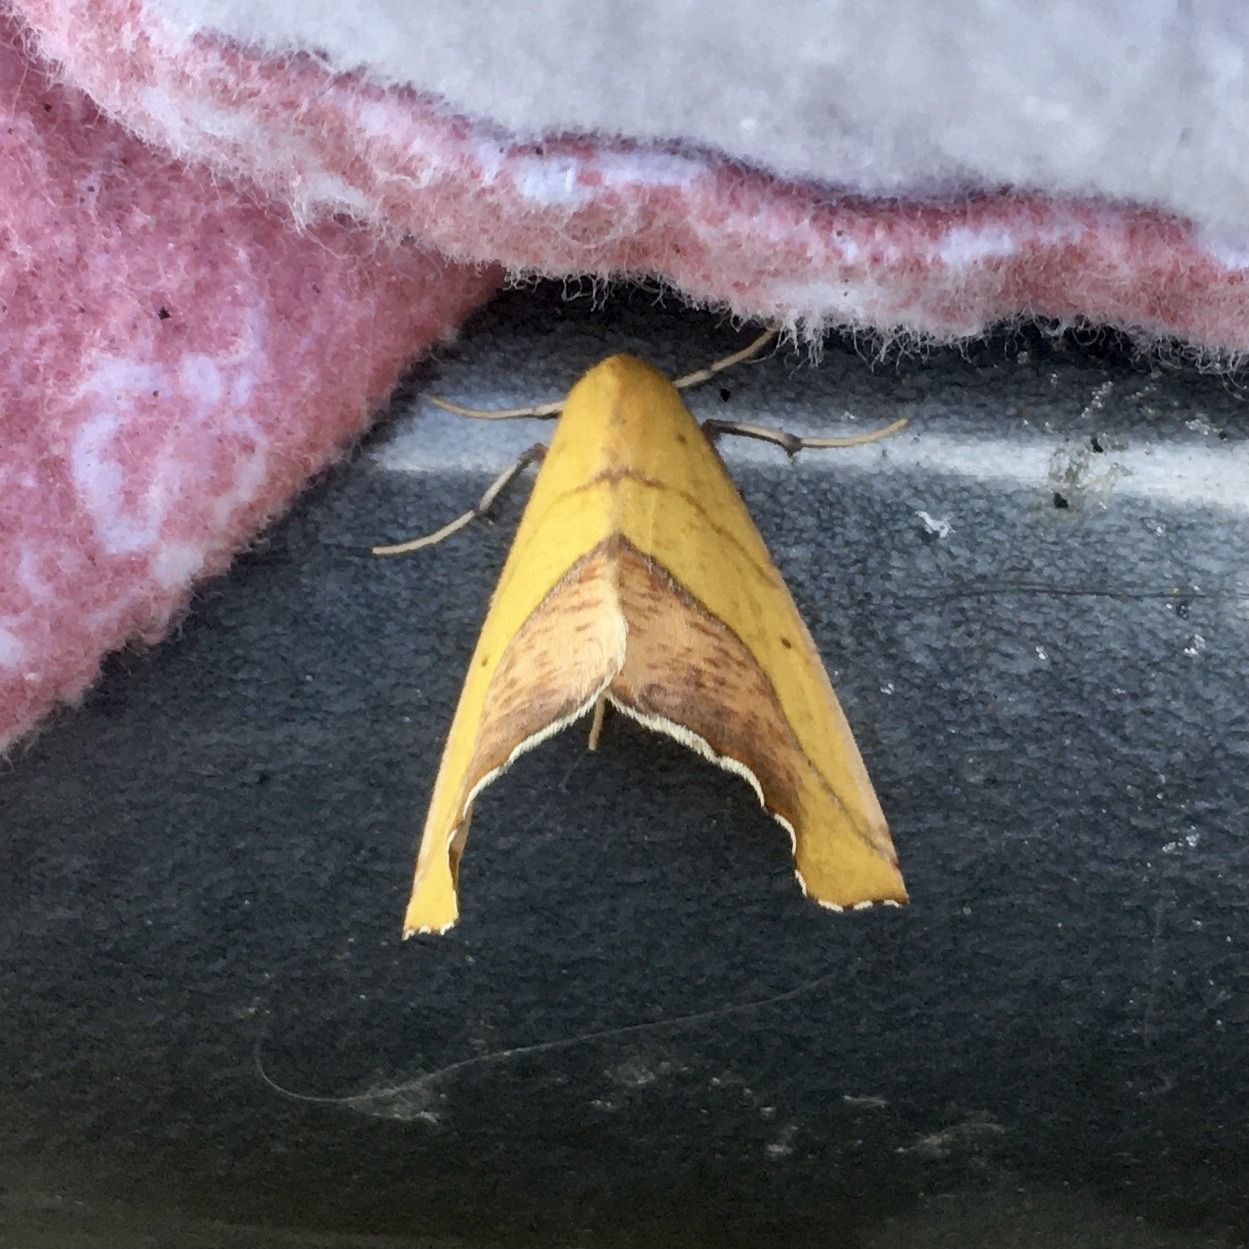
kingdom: Animalia
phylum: Arthropoda
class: Insecta
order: Lepidoptera
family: Geometridae
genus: Sicya
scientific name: Sicya macularia
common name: Sharp-lined yellow
